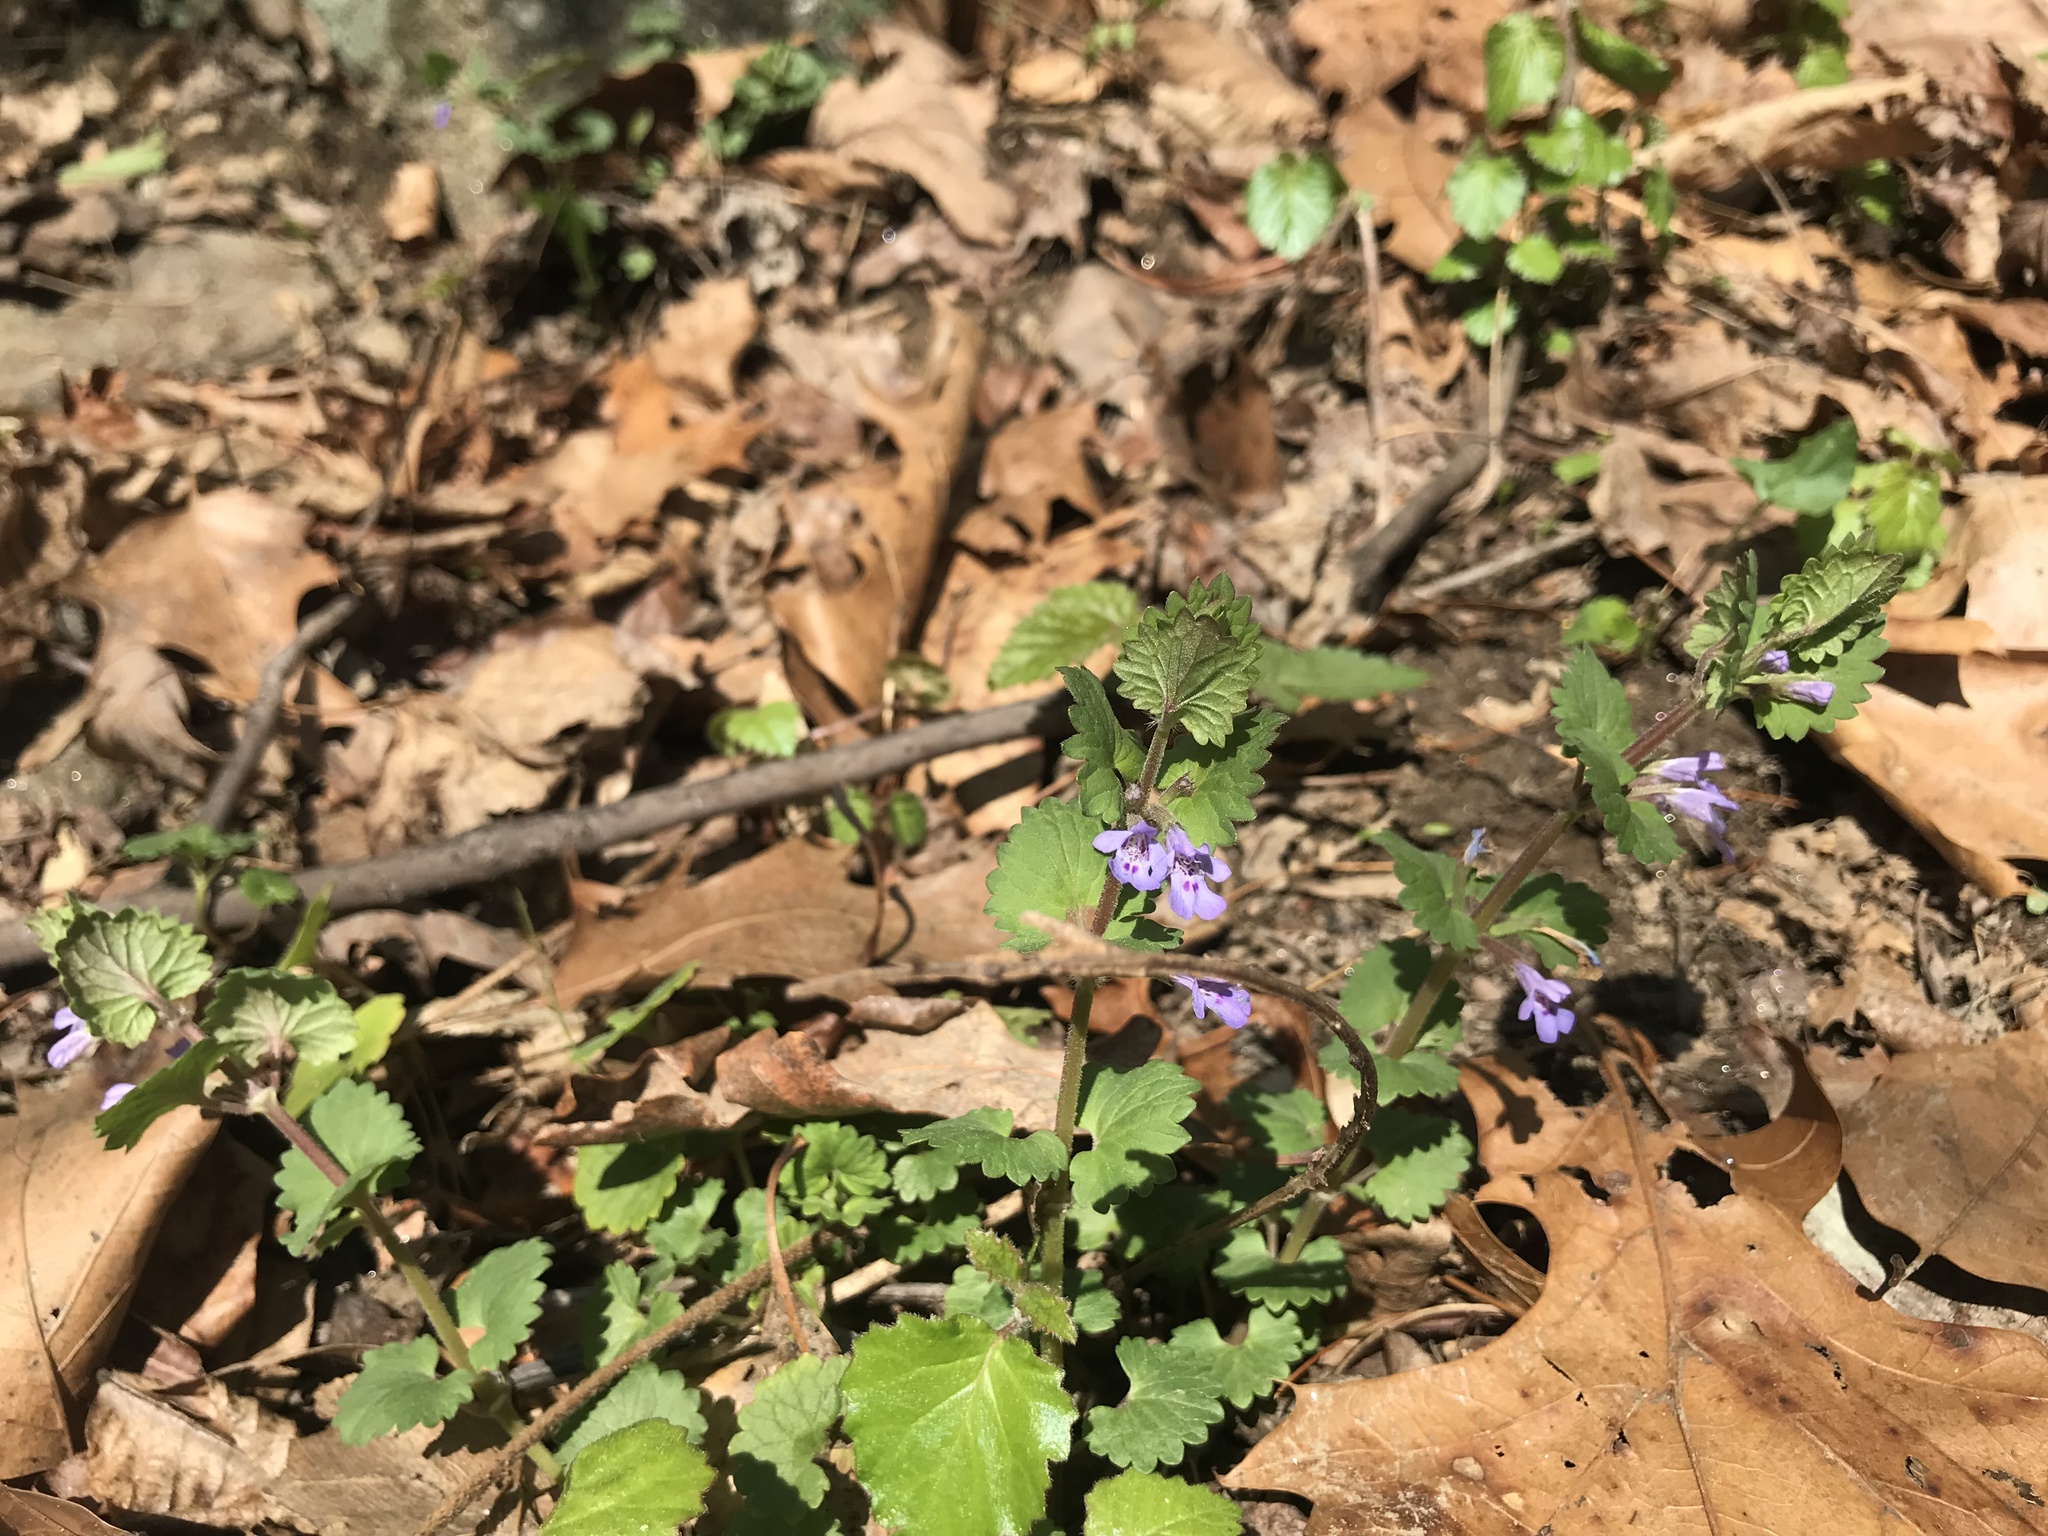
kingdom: Plantae
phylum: Tracheophyta
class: Magnoliopsida
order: Lamiales
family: Lamiaceae
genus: Glechoma
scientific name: Glechoma hederacea
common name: Ground ivy
